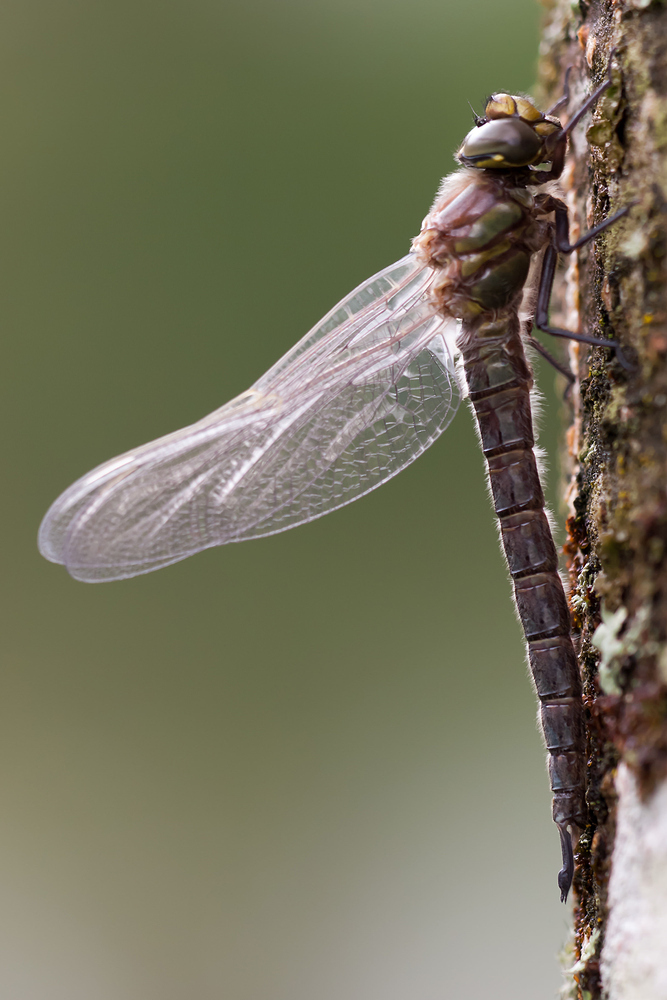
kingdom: Animalia
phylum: Arthropoda
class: Insecta
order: Odonata
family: Aeshnidae
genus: Brachytron
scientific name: Brachytron pratense
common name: Hairy hawker
